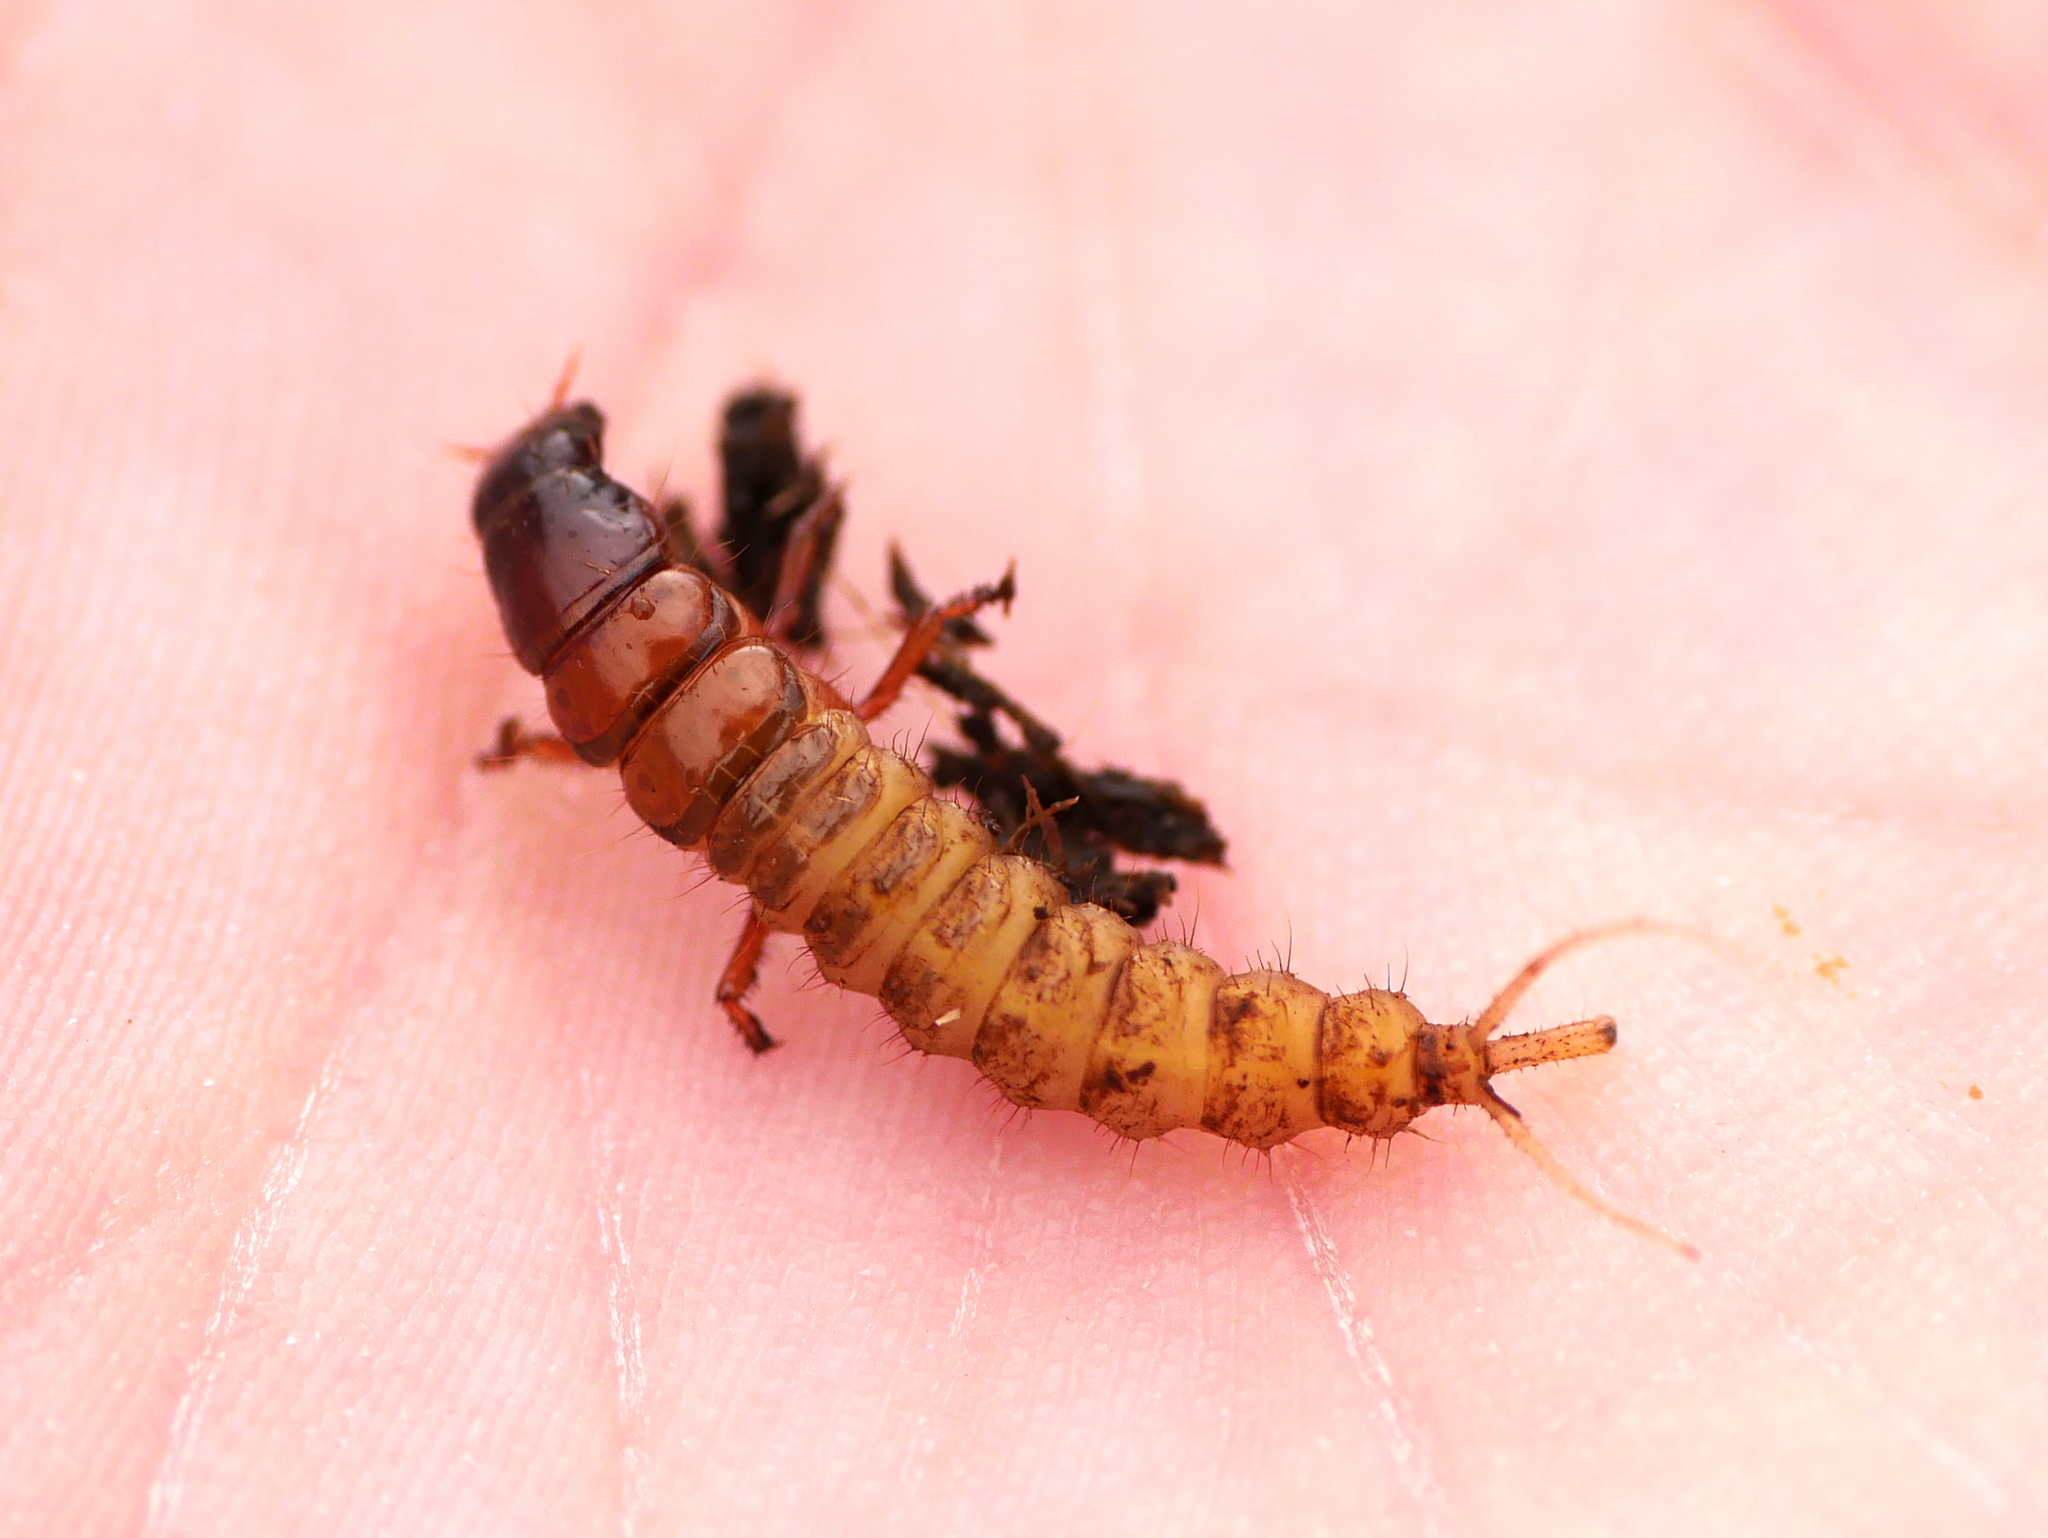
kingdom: Animalia
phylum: Arthropoda
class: Insecta
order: Coleoptera
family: Staphylinidae
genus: Emus
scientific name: Emus hirtus
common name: Hairy rove-beetle
